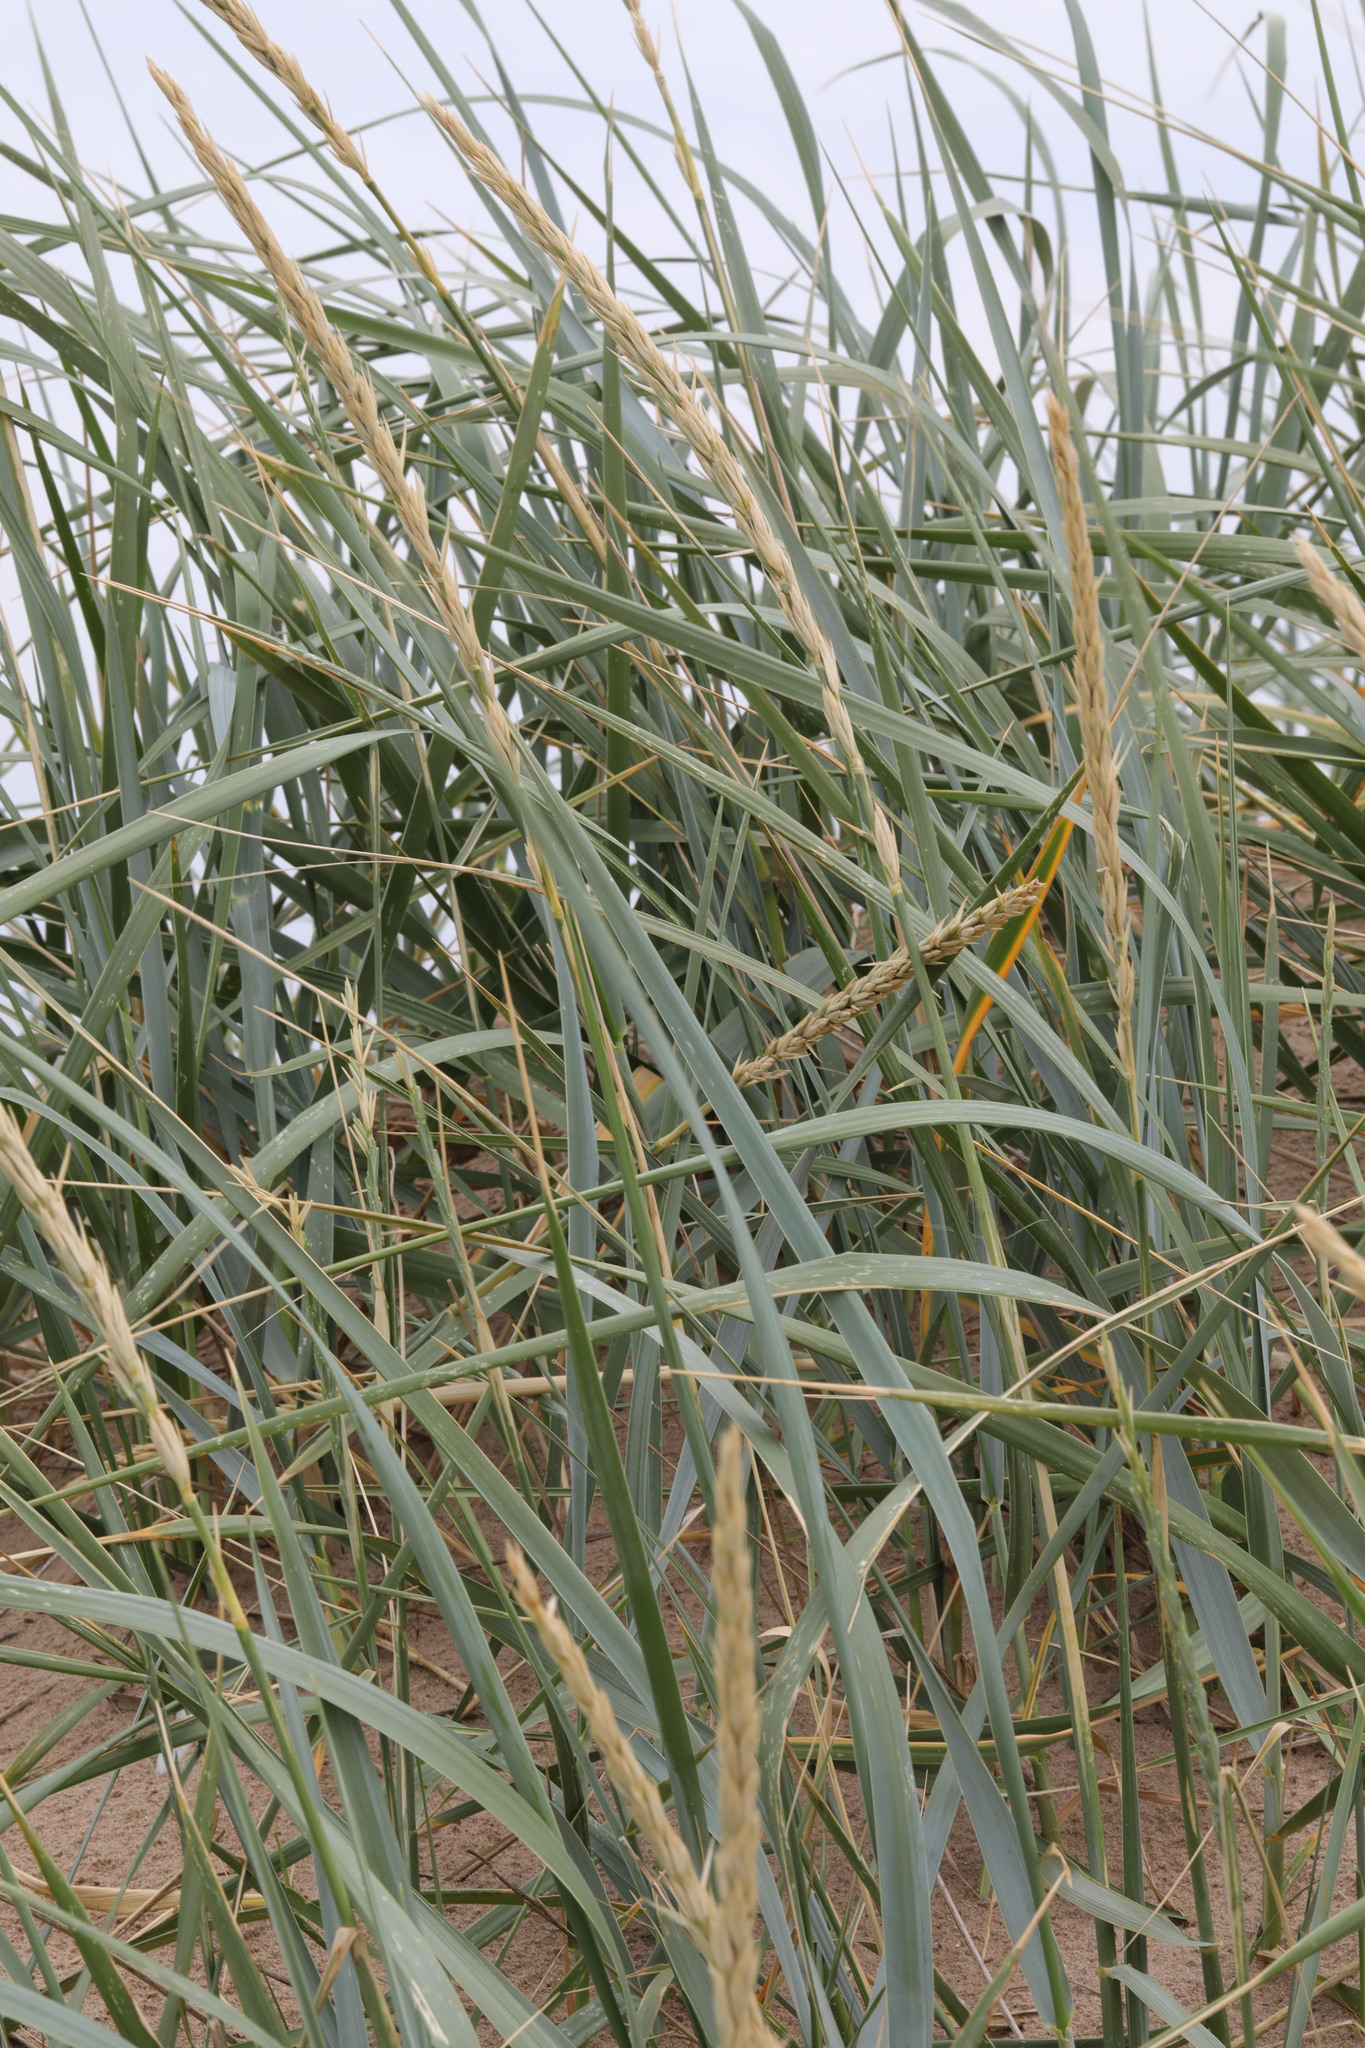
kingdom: Plantae
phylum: Tracheophyta
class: Liliopsida
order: Poales
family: Poaceae
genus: Leymus
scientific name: Leymus arenarius
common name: Lyme-grass
